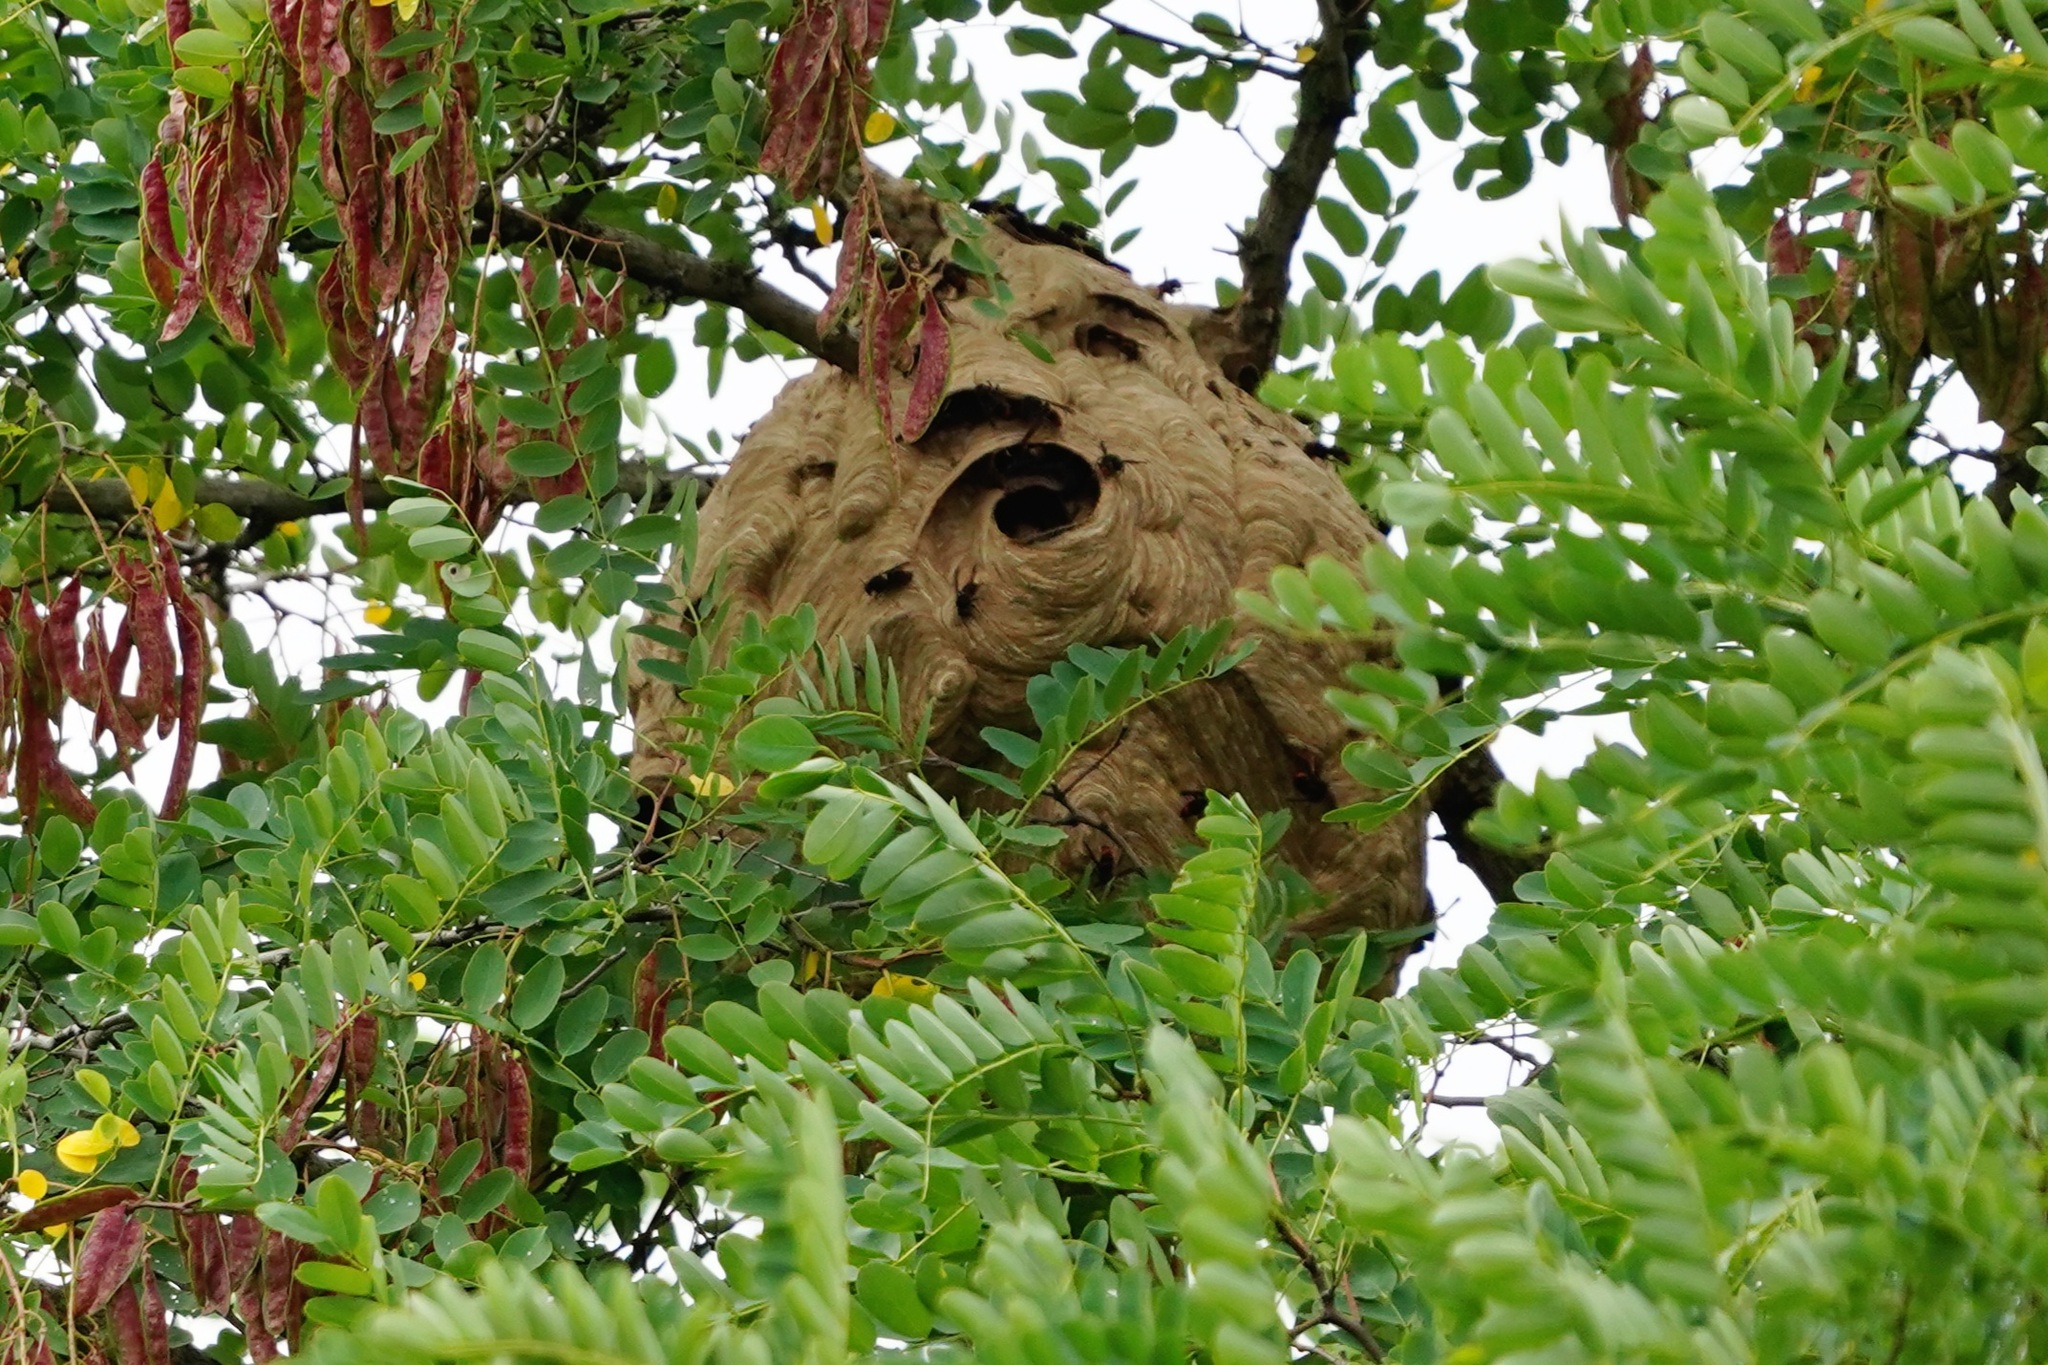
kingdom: Animalia
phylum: Arthropoda
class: Insecta
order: Hymenoptera
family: Vespidae
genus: Vespa
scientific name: Vespa velutina
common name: Asian hornet
